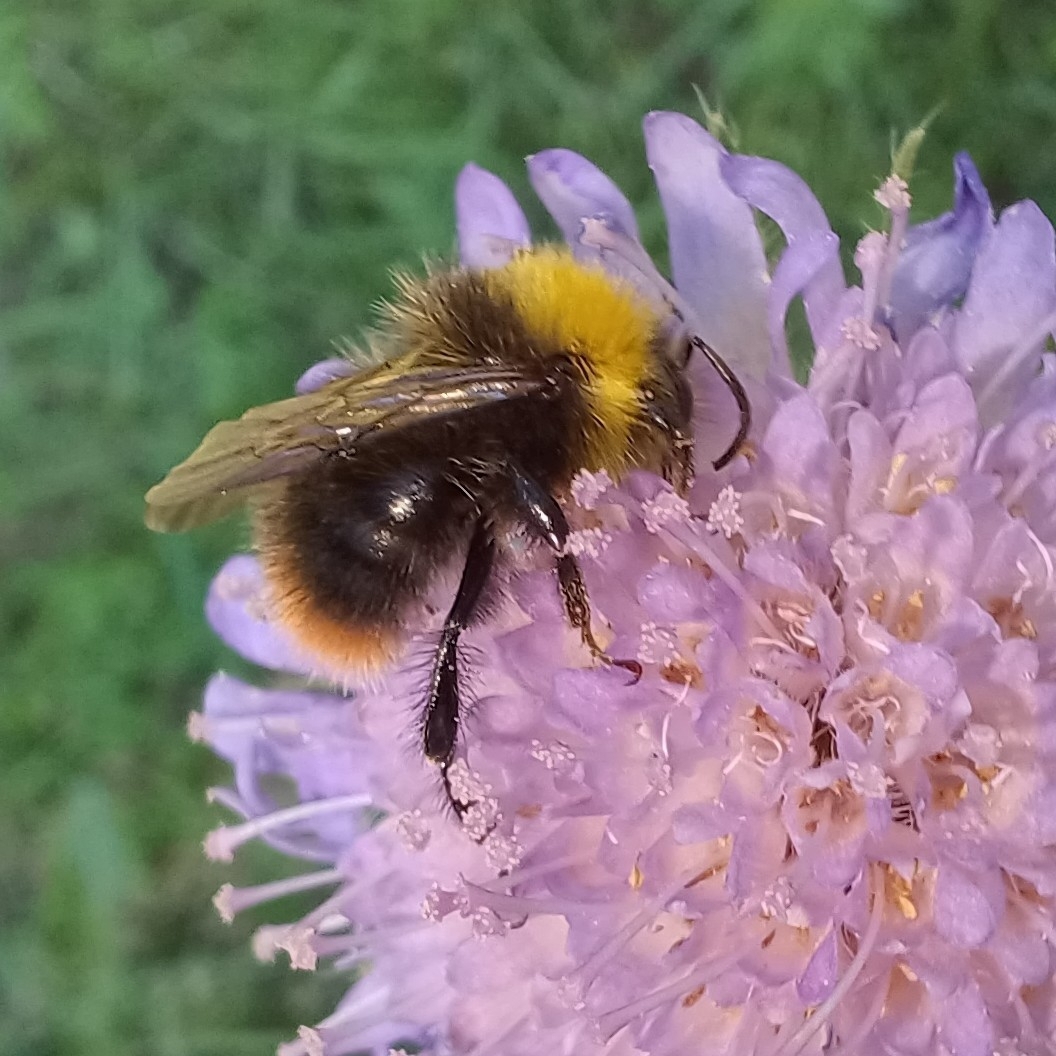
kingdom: Animalia
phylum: Arthropoda
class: Insecta
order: Hymenoptera
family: Apidae
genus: Bombus
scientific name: Bombus pratorum
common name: Early humble-bee
